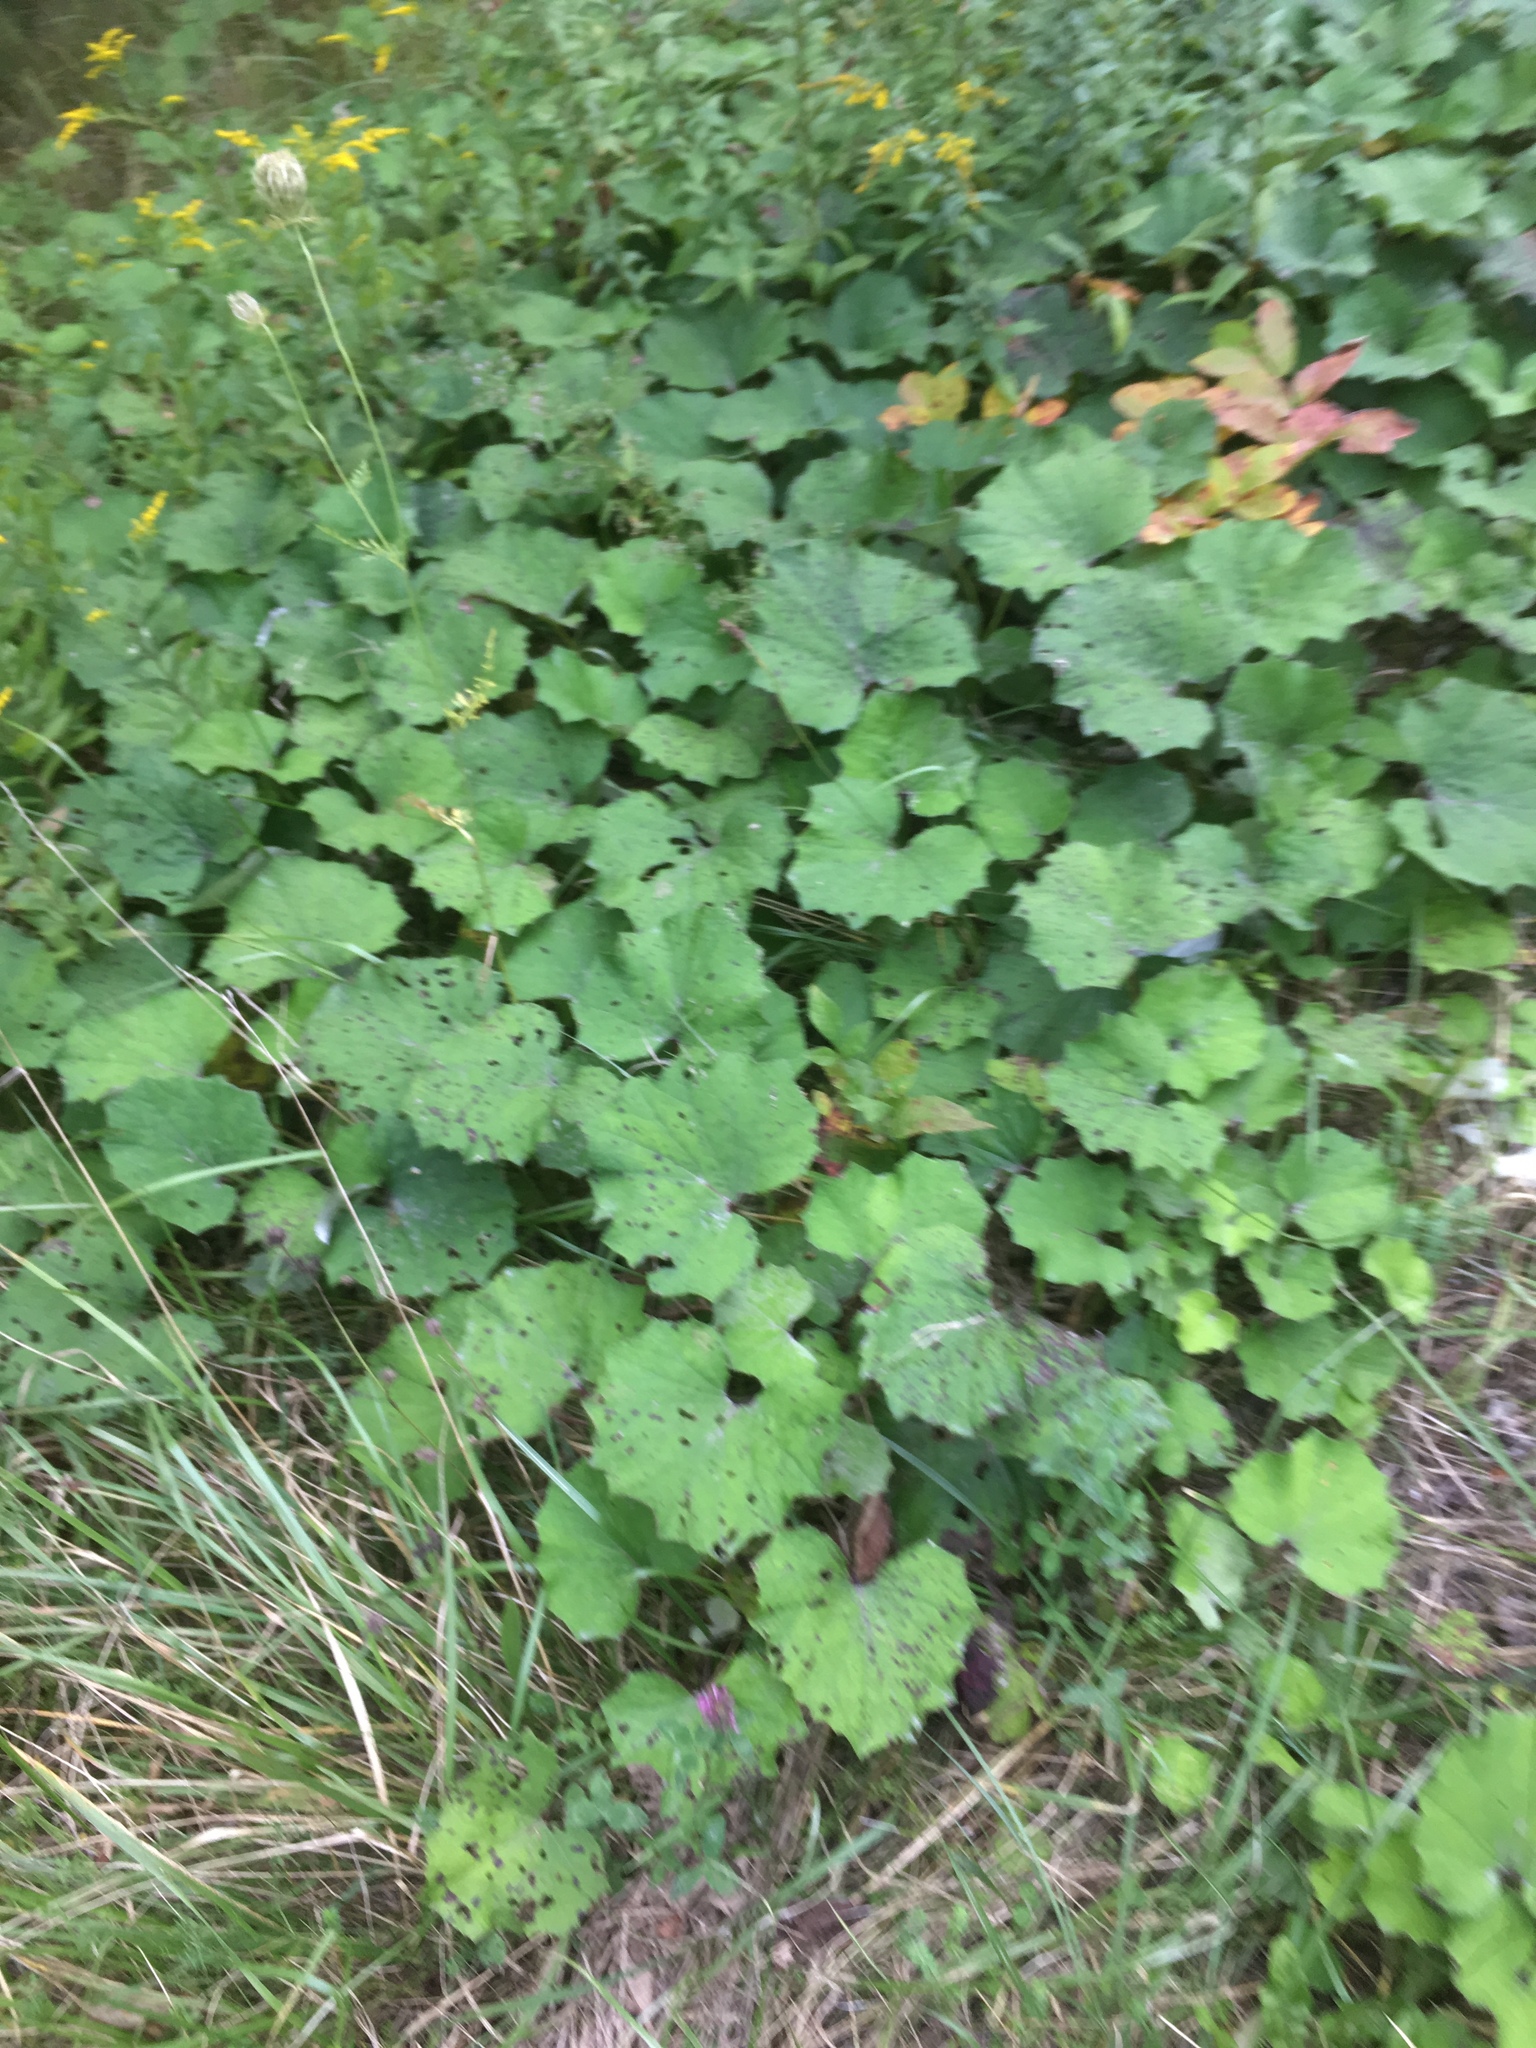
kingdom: Plantae
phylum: Tracheophyta
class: Magnoliopsida
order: Asterales
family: Asteraceae
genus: Tussilago
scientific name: Tussilago farfara
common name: Coltsfoot
